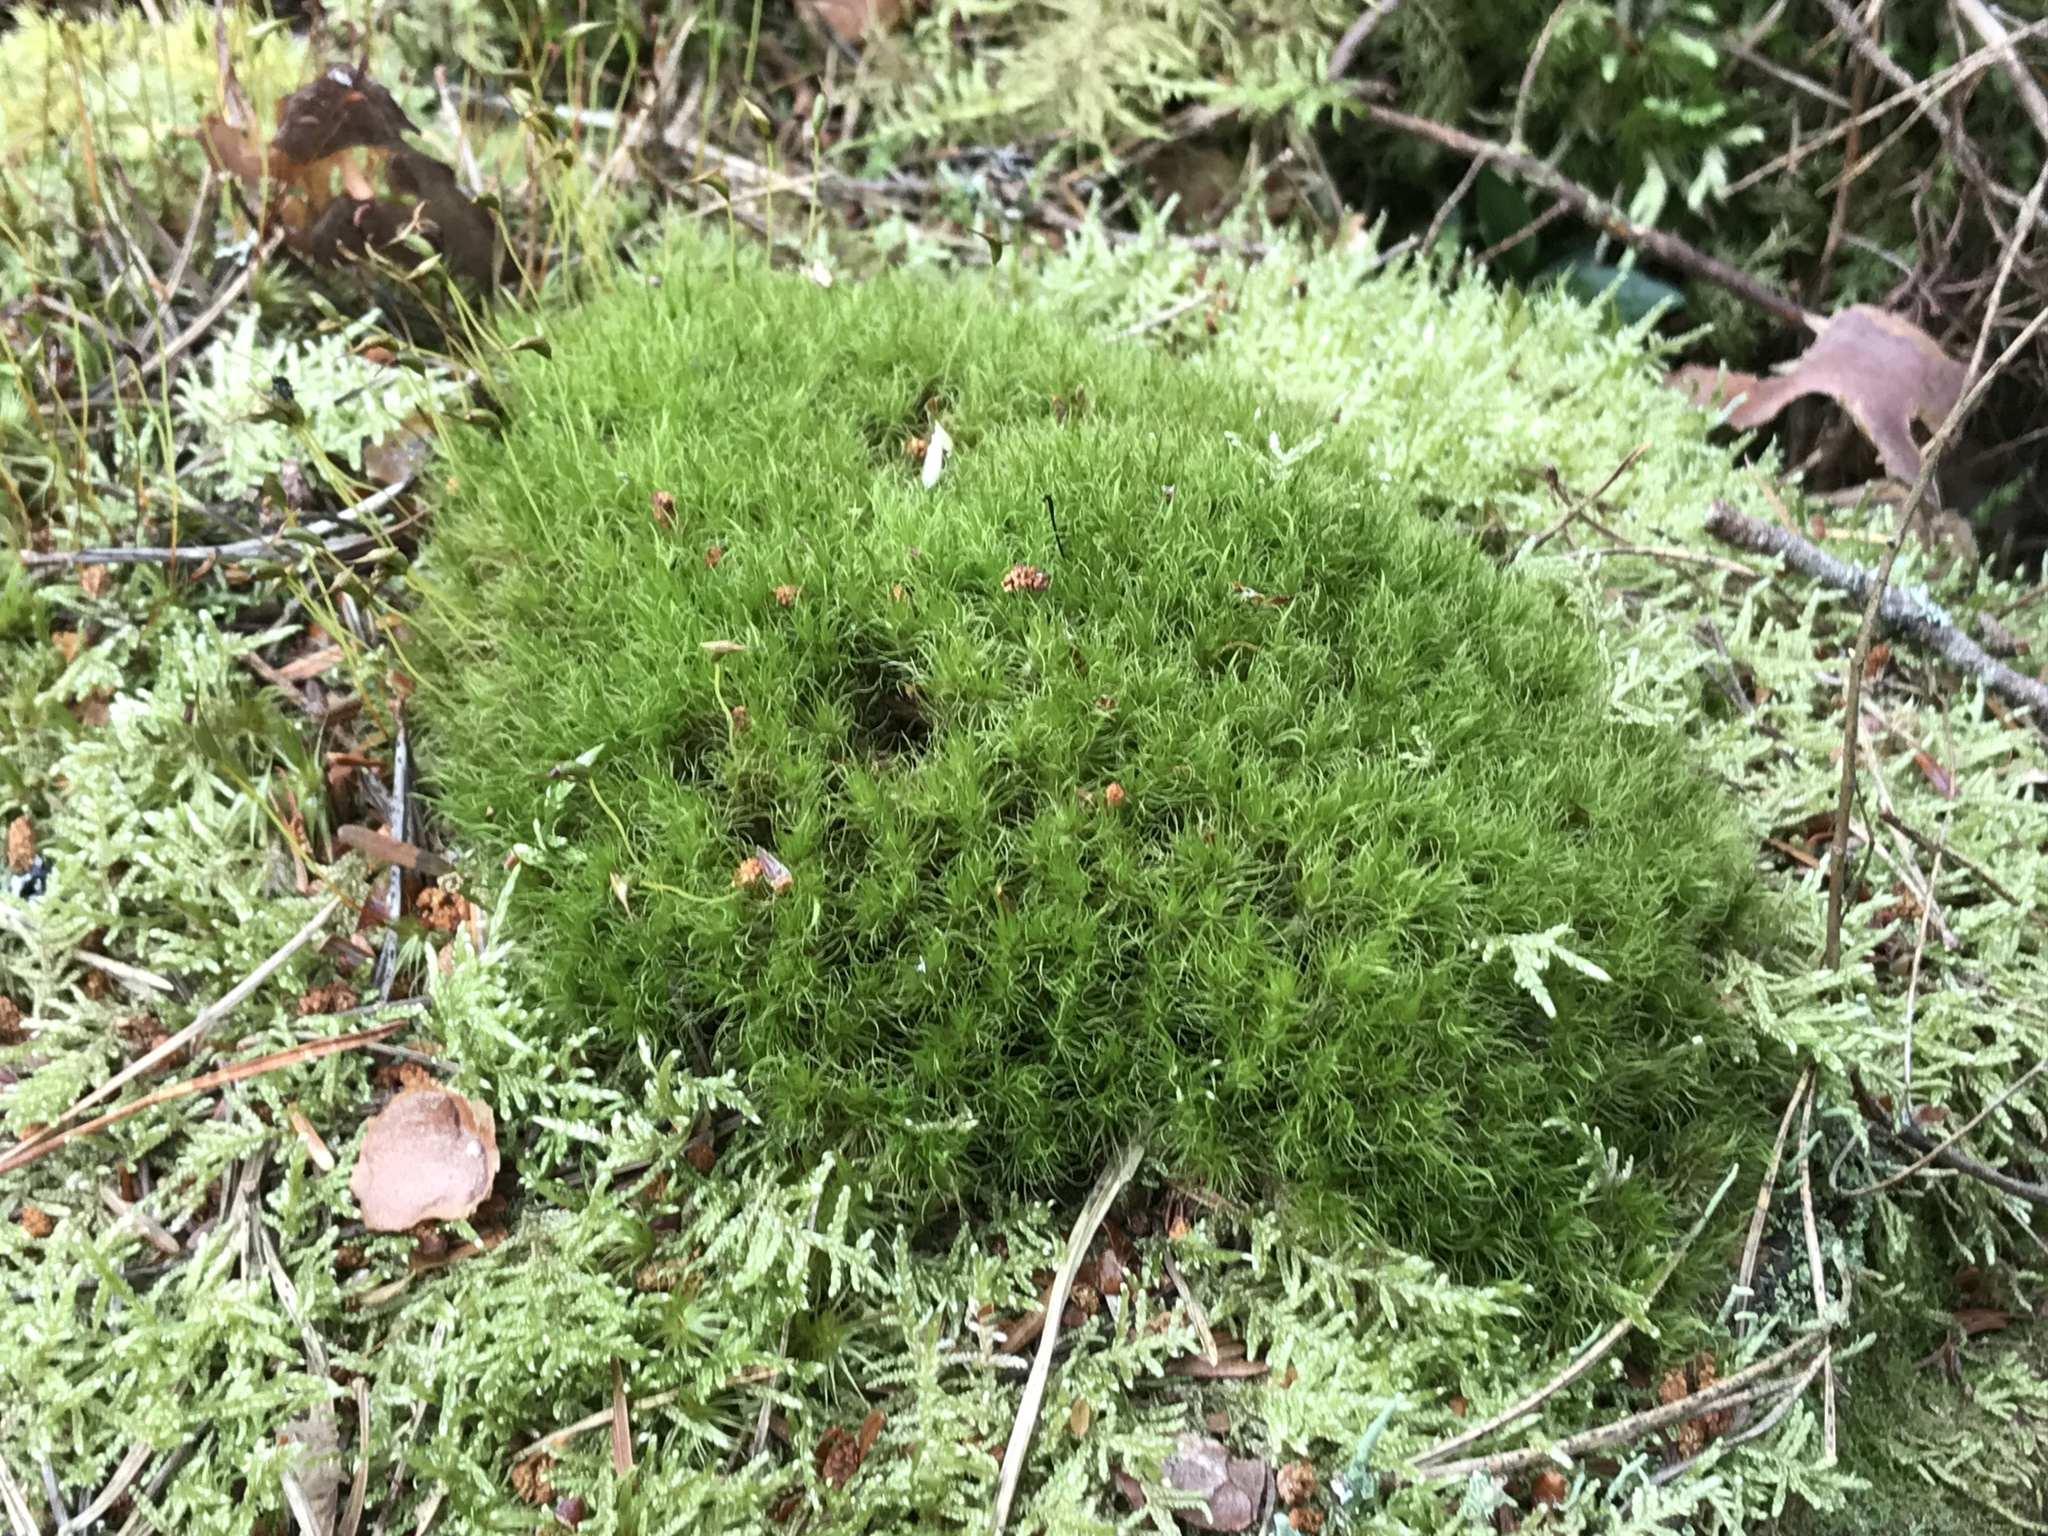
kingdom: Plantae
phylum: Bryophyta
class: Bryopsida
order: Dicranales
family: Dicranaceae
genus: Dicranum
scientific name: Dicranum fuscescens
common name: Curly heron's-bill moss
